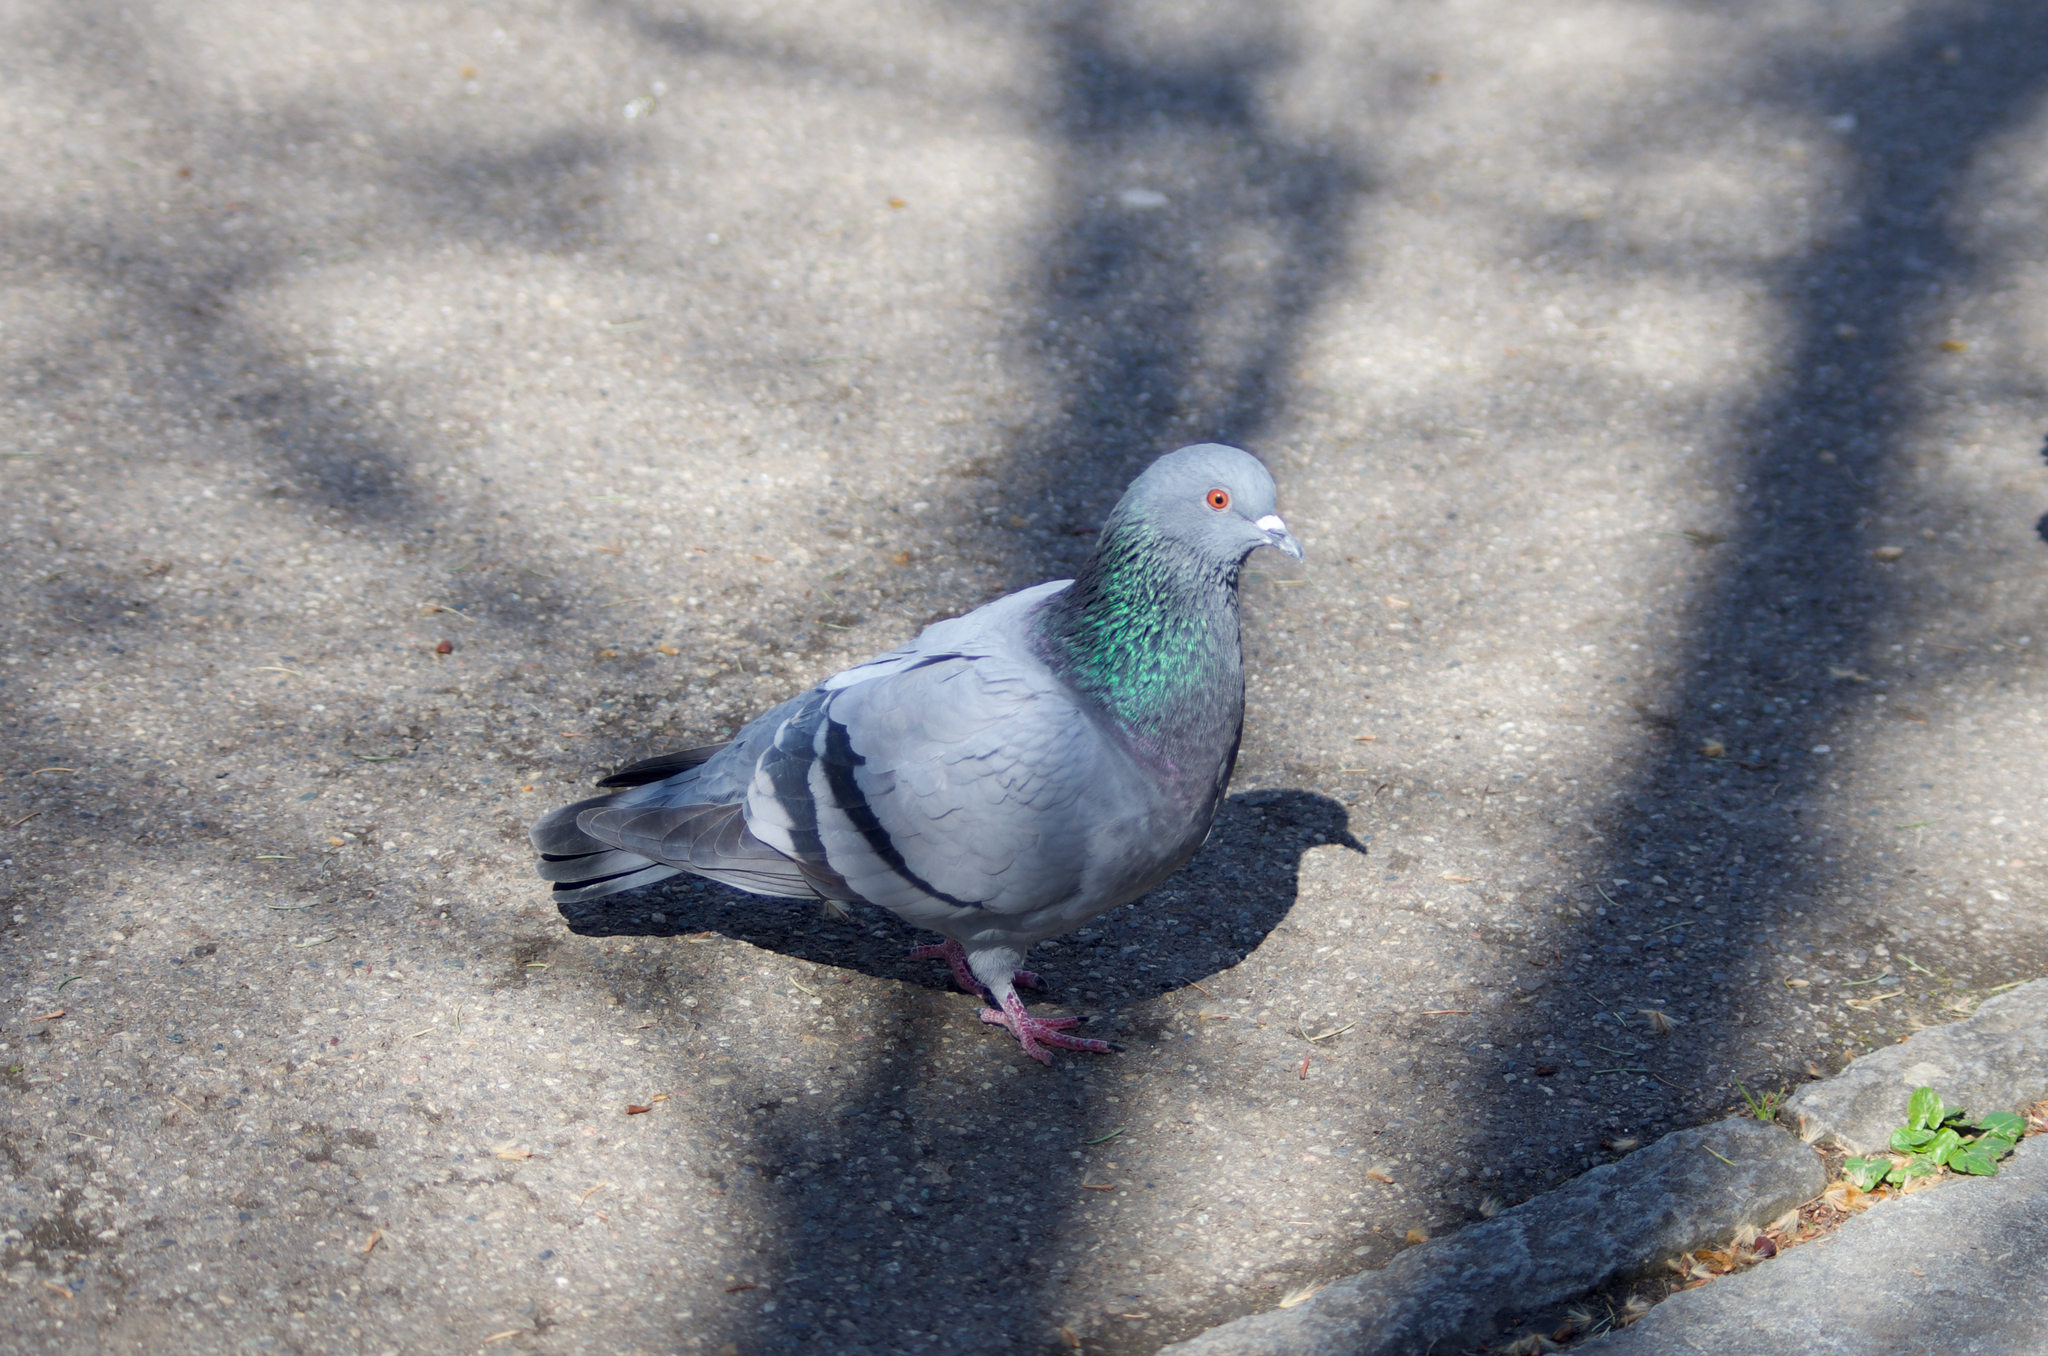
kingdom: Animalia
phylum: Chordata
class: Aves
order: Columbiformes
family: Columbidae
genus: Columba
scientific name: Columba livia
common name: Rock pigeon
